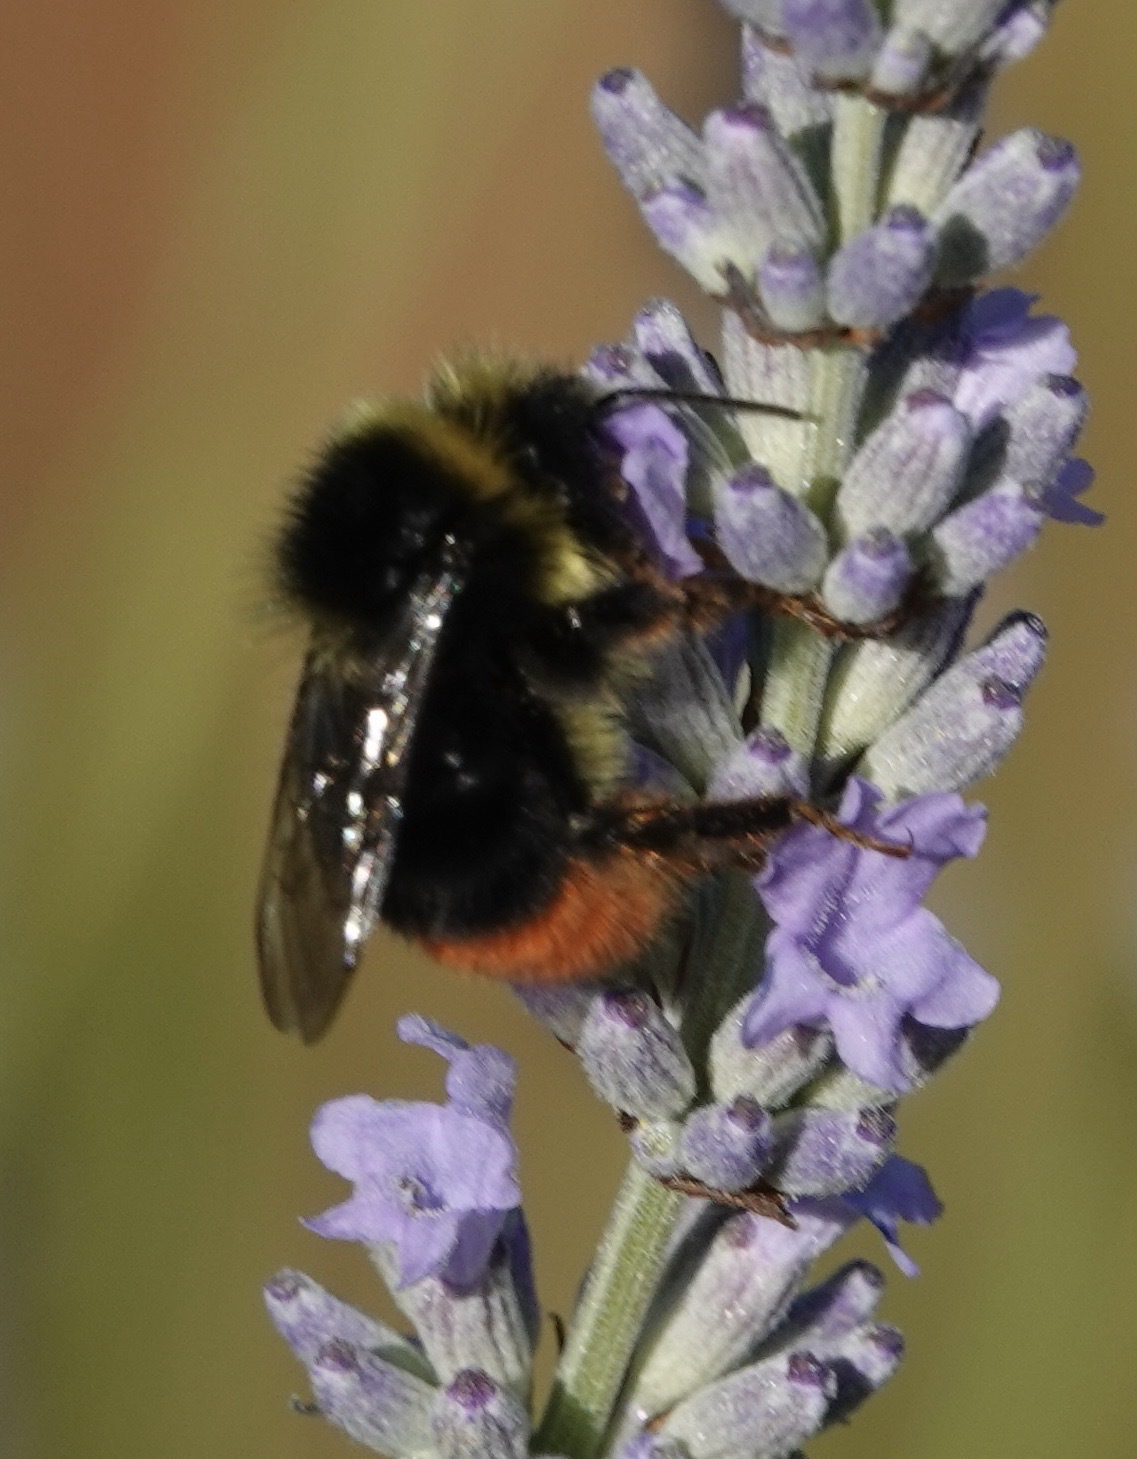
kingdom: Animalia
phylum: Arthropoda
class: Insecta
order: Hymenoptera
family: Apidae
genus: Bombus
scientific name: Bombus lapidarius
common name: Large red-tailed humble-bee
